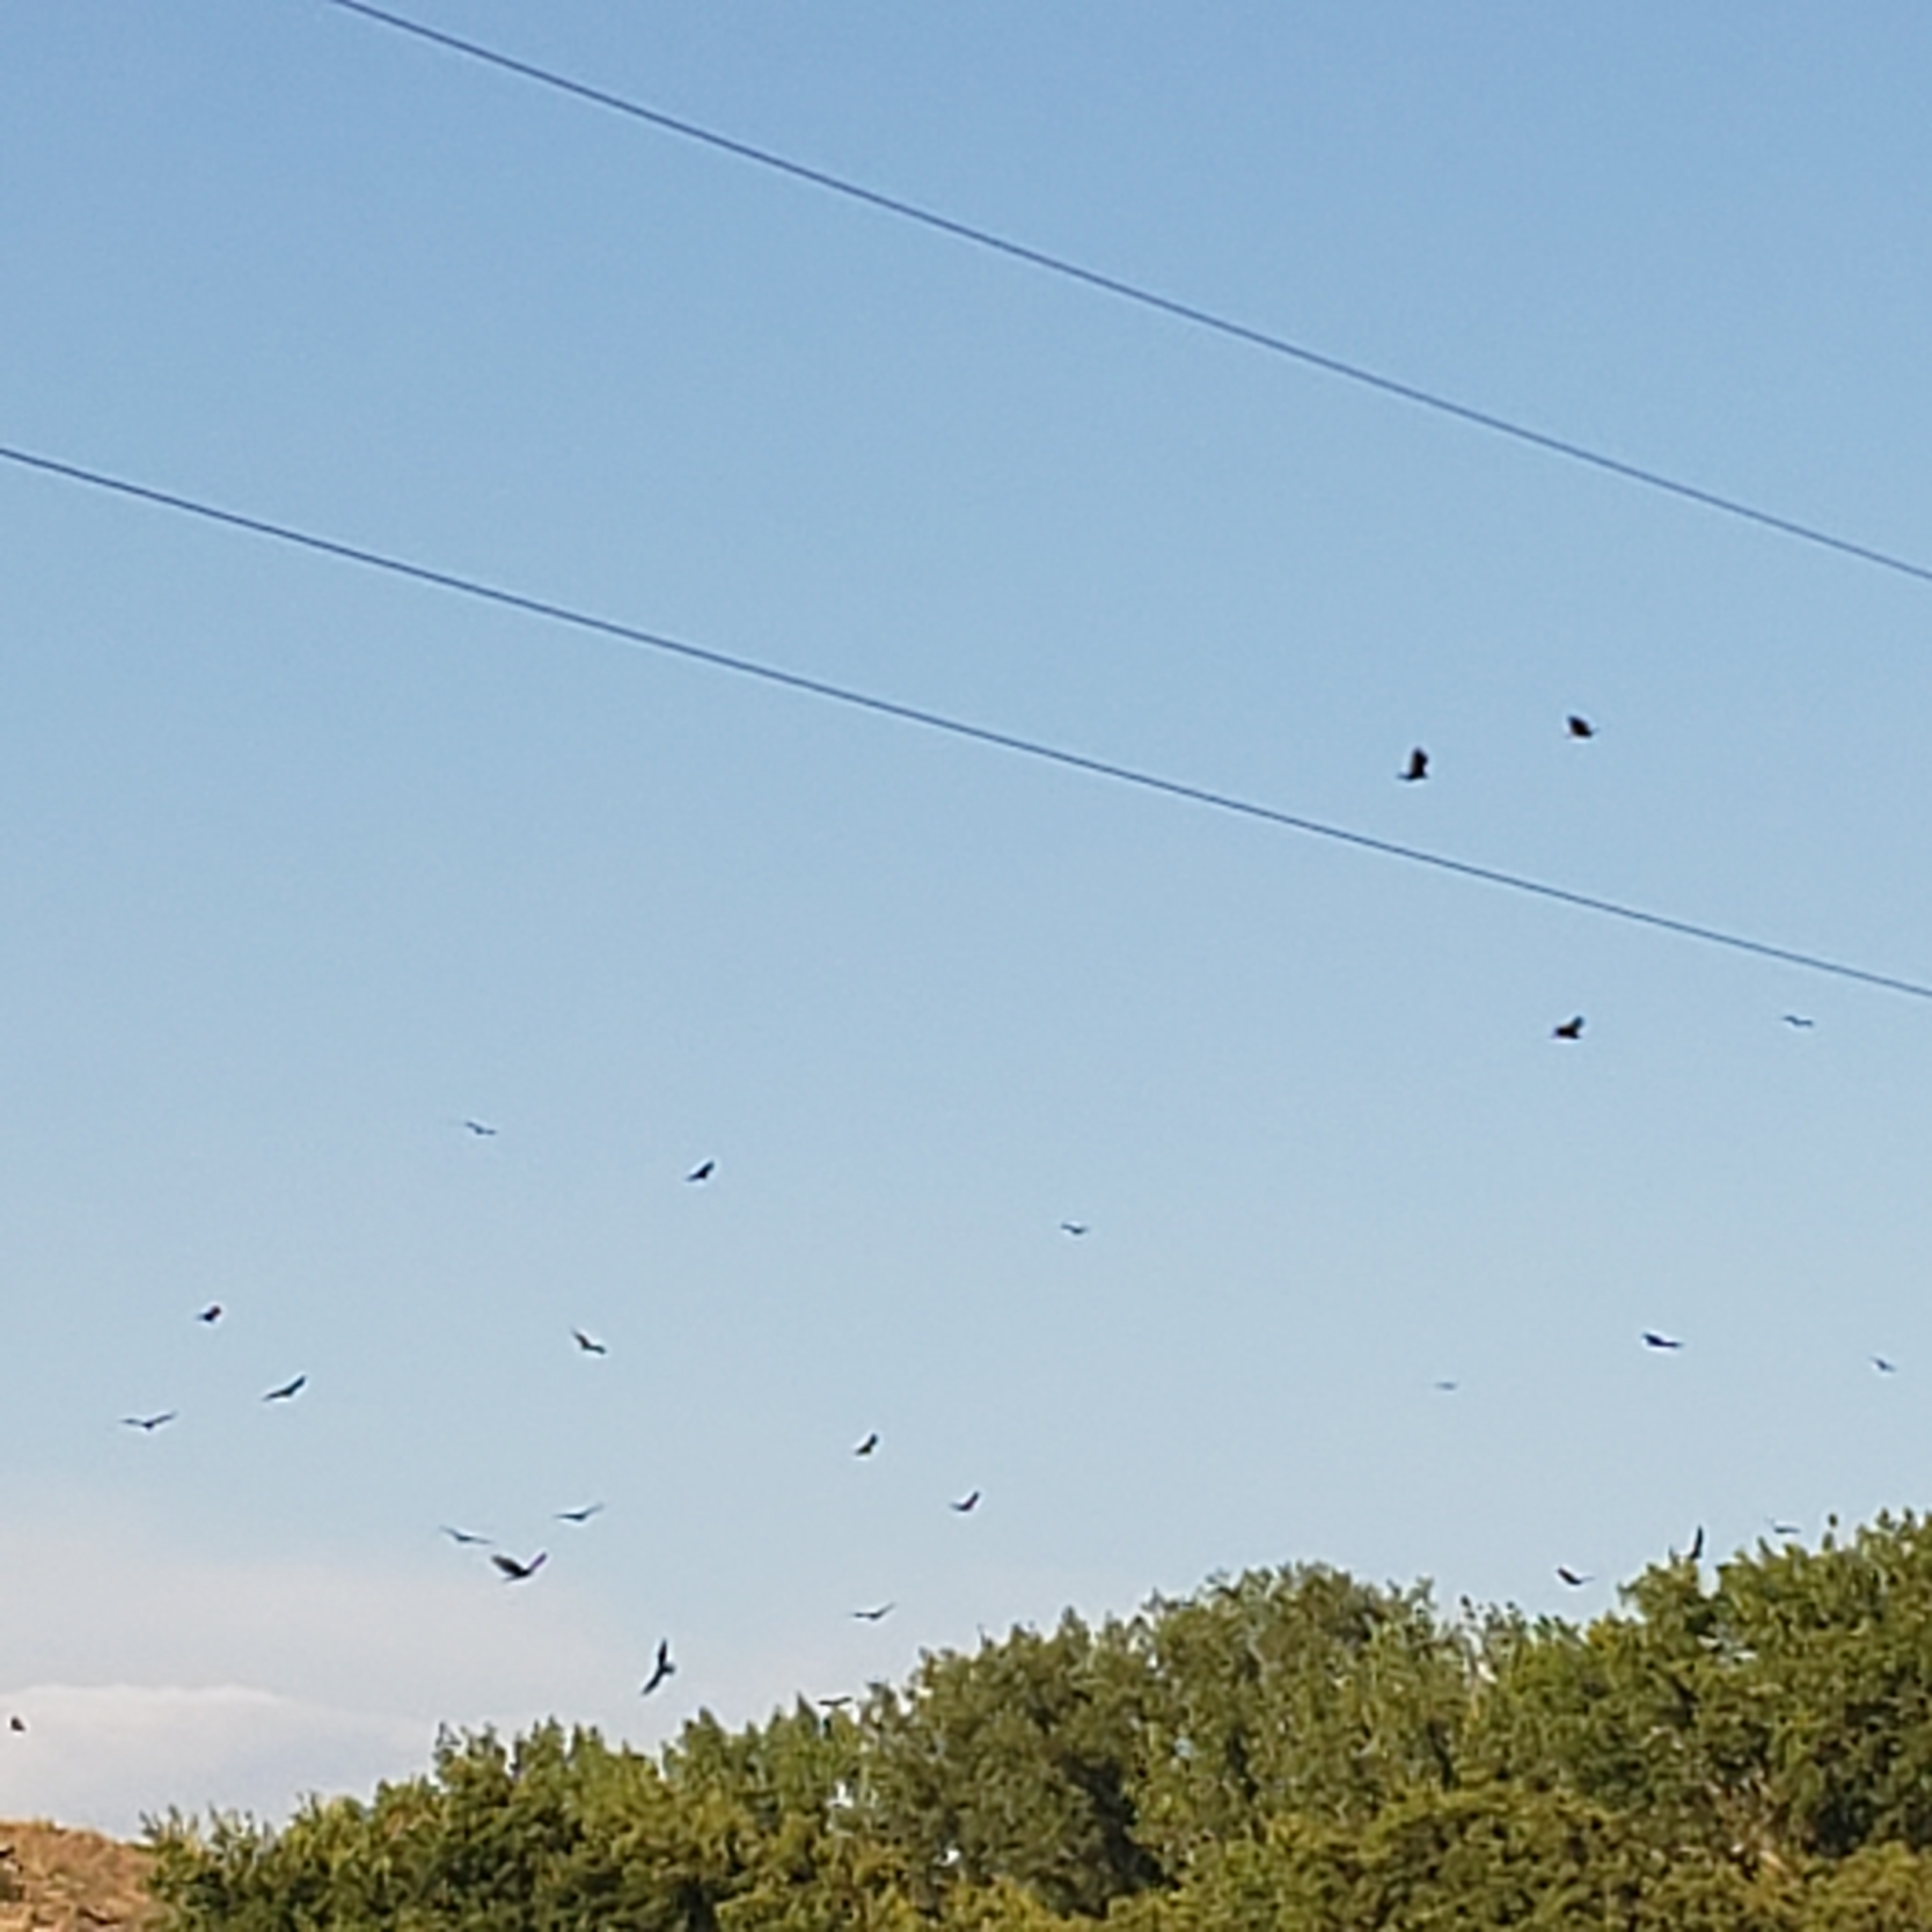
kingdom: Animalia
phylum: Chordata
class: Aves
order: Accipitriformes
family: Cathartidae
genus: Cathartes
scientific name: Cathartes aura
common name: Turkey vulture
